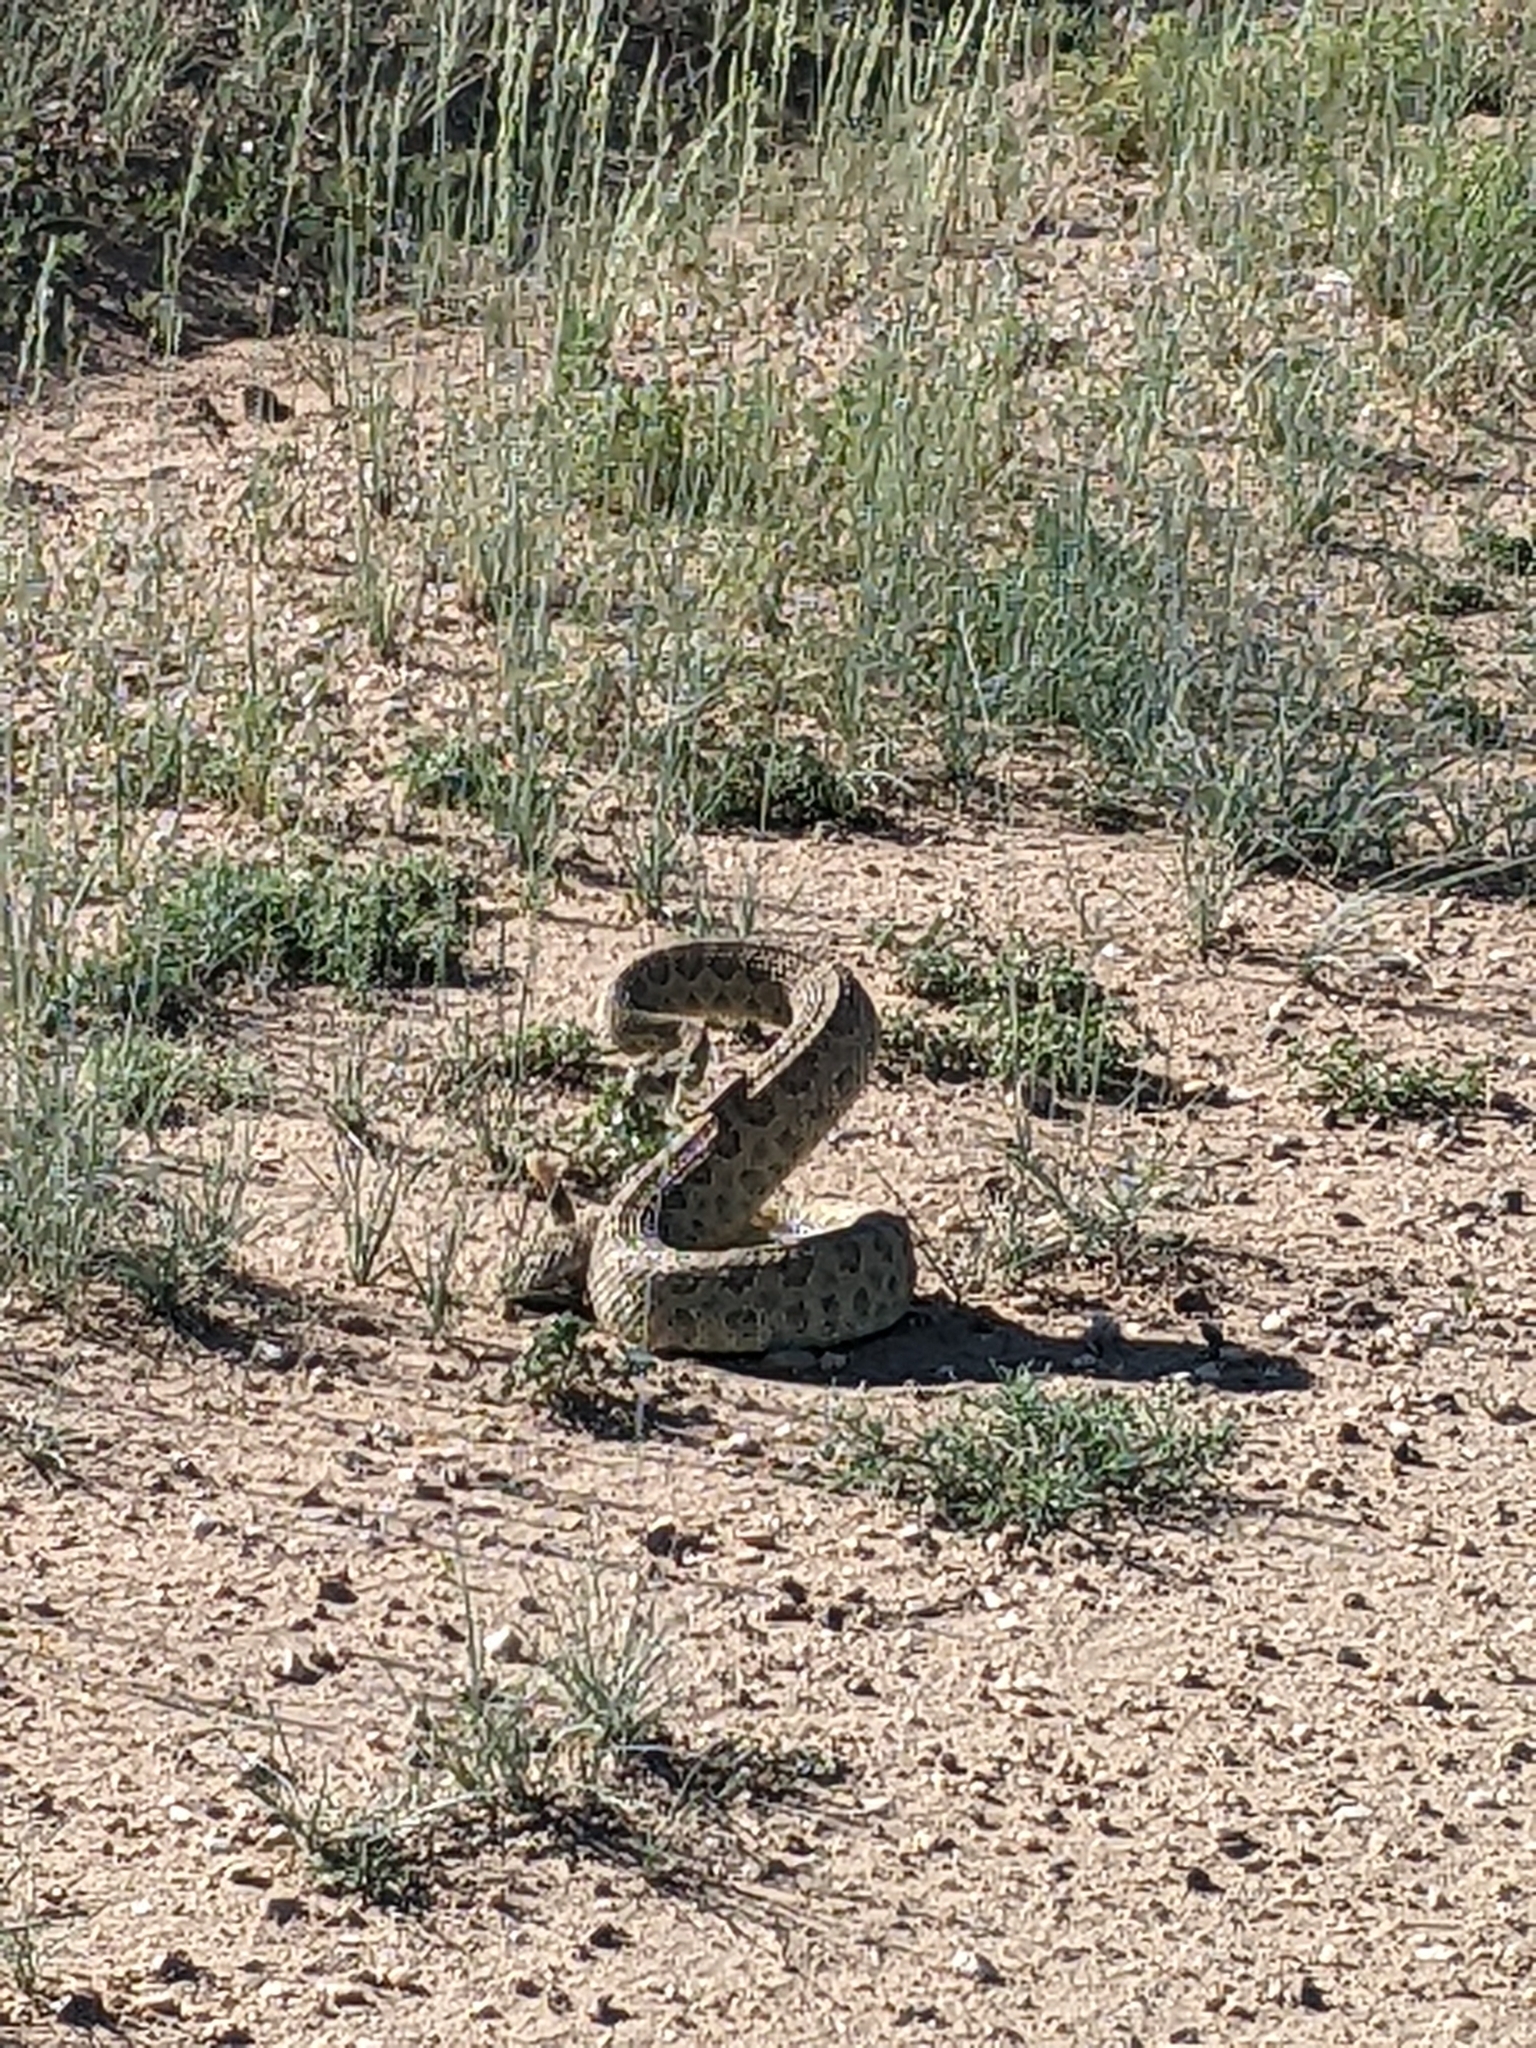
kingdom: Animalia
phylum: Chordata
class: Squamata
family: Viperidae
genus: Crotalus
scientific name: Crotalus viridis
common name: Prairie rattlesnake
